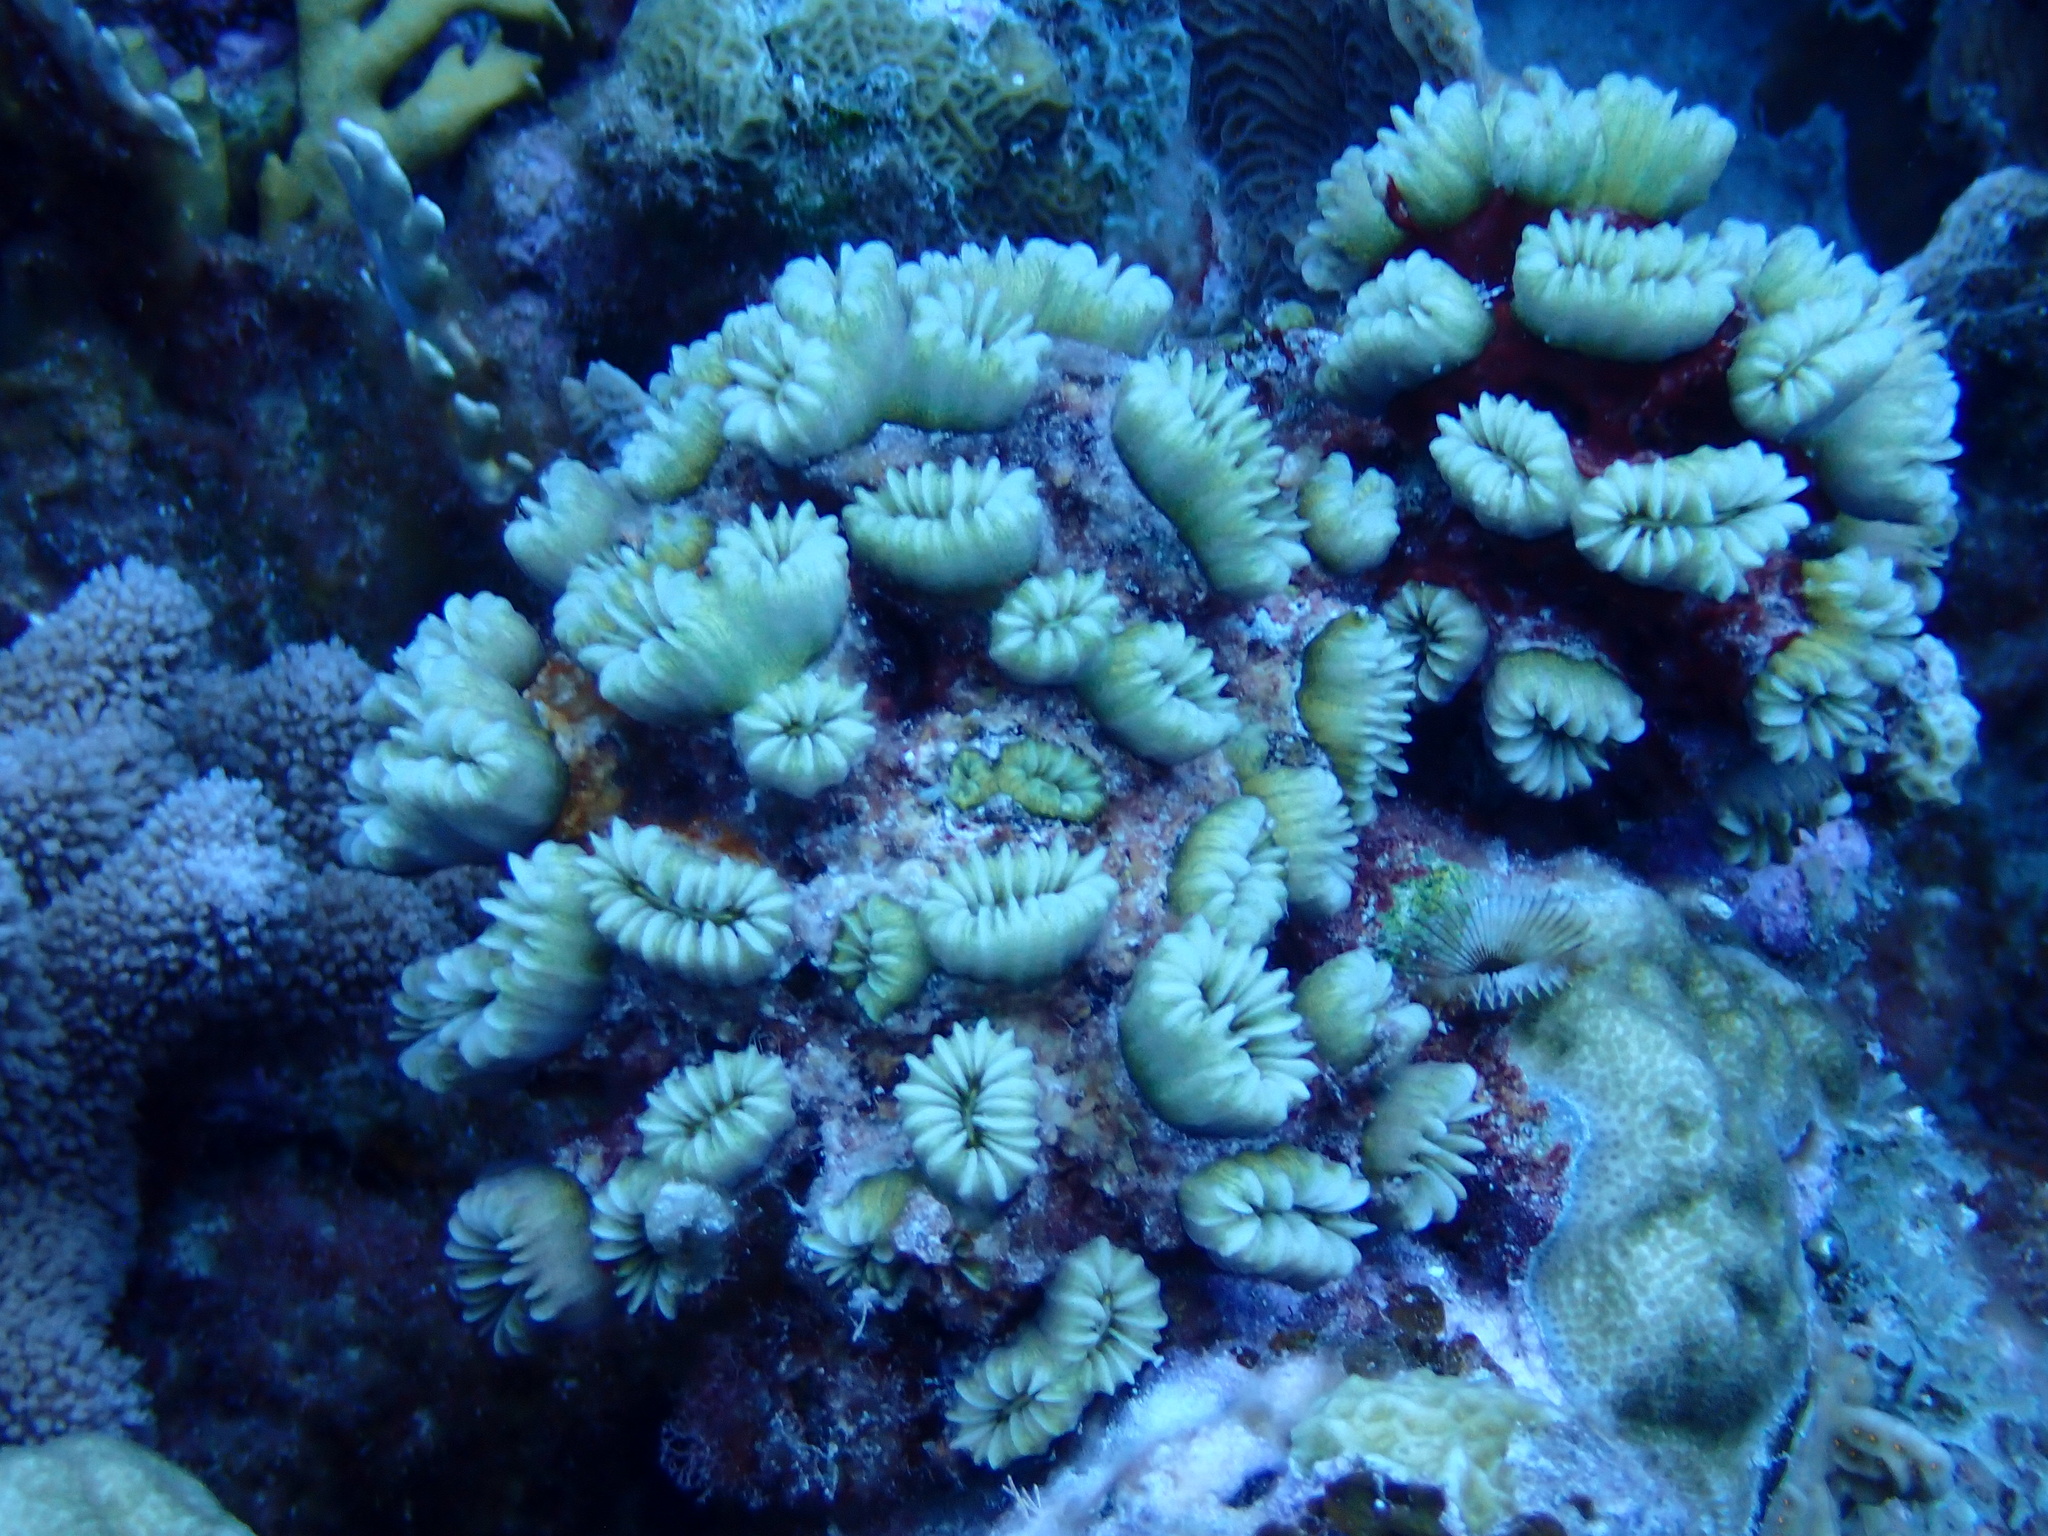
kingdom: Animalia
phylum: Cnidaria
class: Anthozoa
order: Scleractinia
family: Meandrinidae
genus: Eusmilia
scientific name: Eusmilia fastigiata
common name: Smooth flower coral
